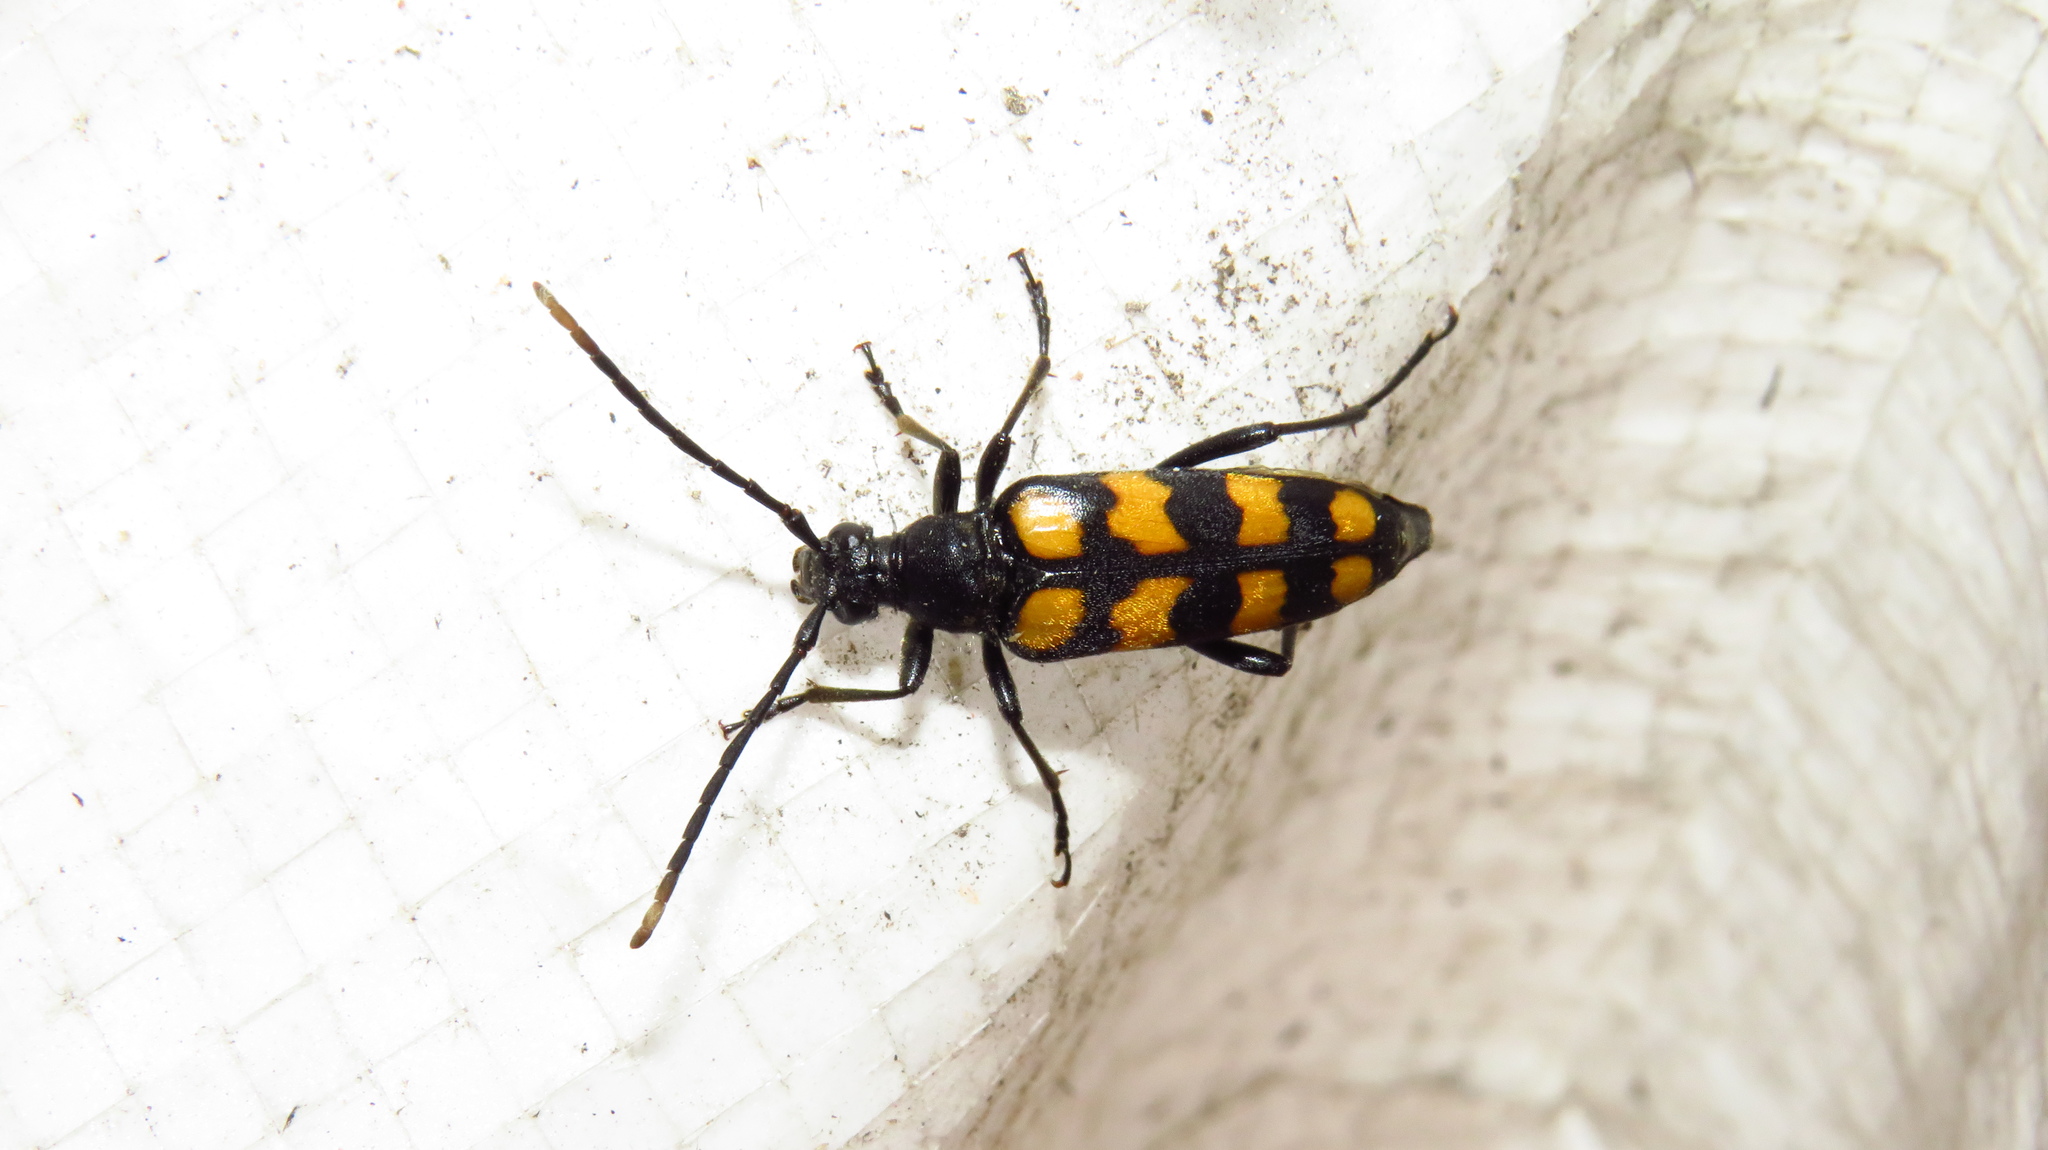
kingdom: Animalia
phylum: Arthropoda
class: Insecta
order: Coleoptera
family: Cerambycidae
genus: Leptura
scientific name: Leptura quadrifasciata
